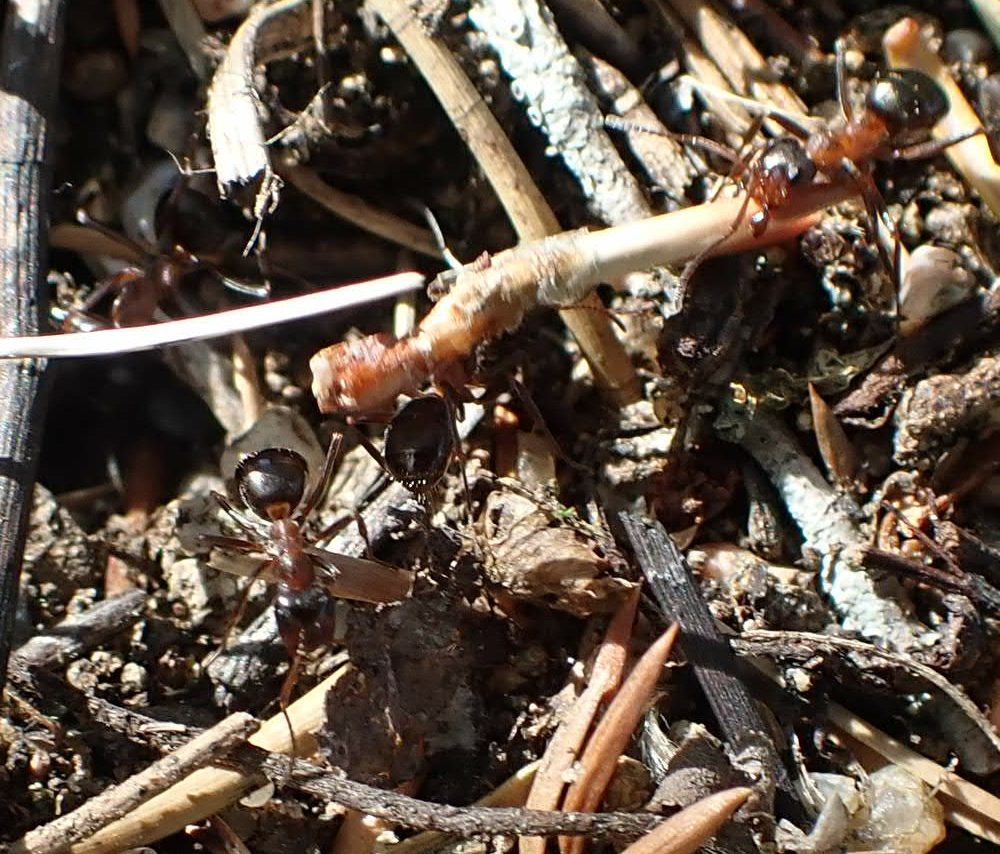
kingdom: Animalia
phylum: Arthropoda
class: Insecta
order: Hymenoptera
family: Formicidae
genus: Formica
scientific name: Formica ulkei
